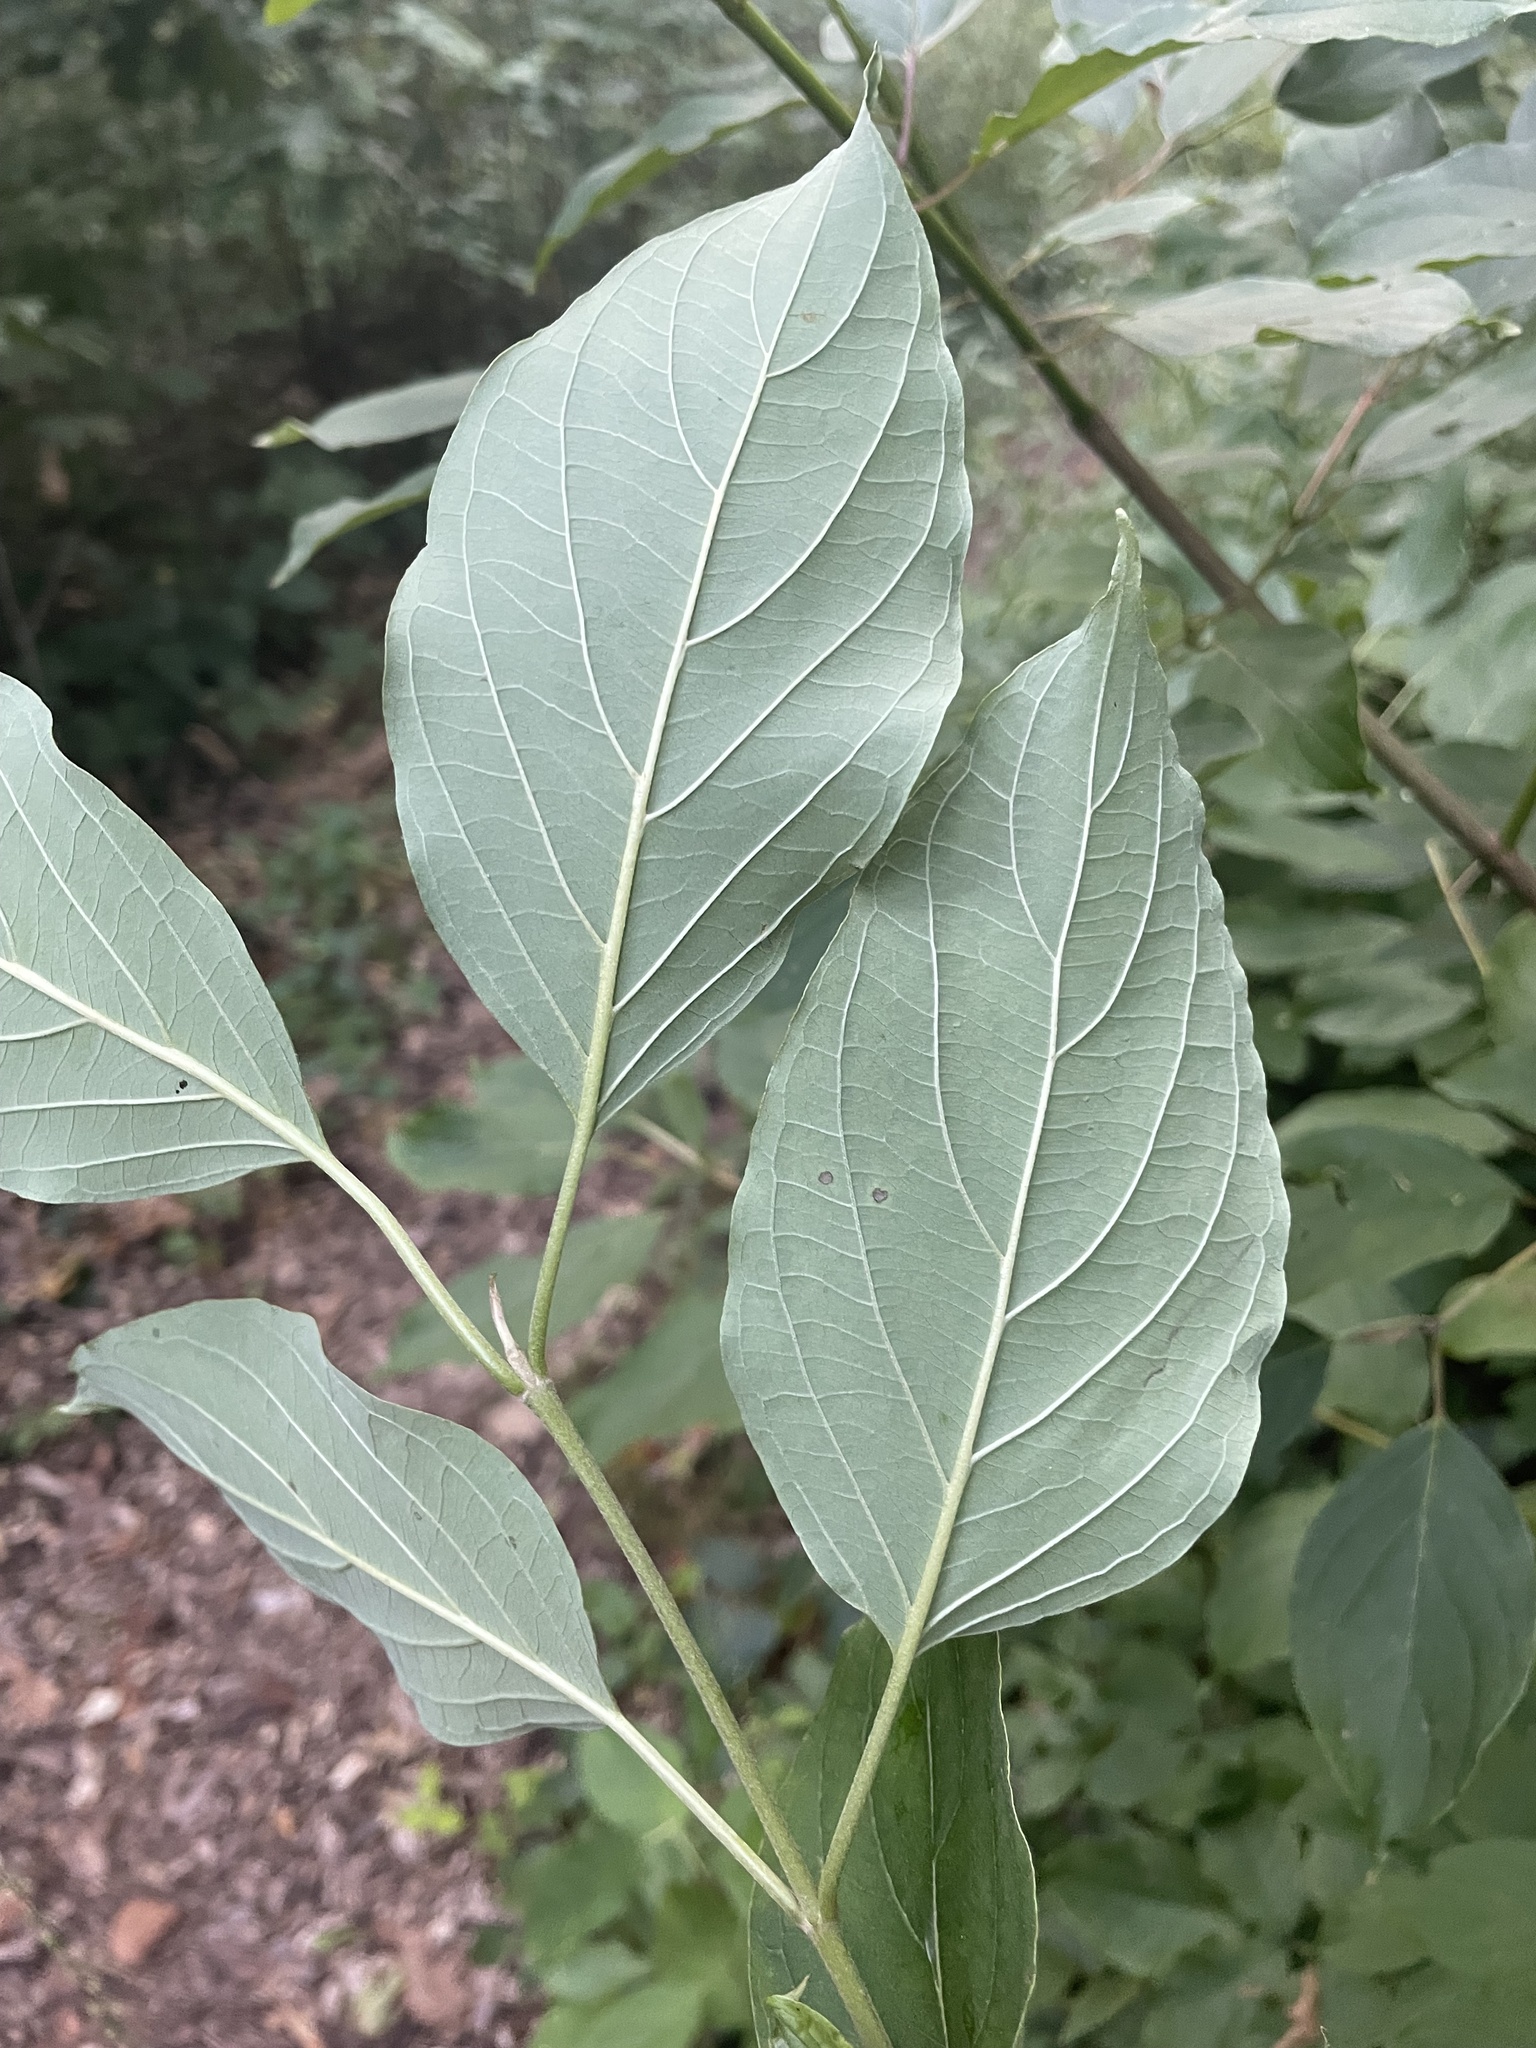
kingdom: Plantae
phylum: Tracheophyta
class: Magnoliopsida
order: Cornales
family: Cornaceae
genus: Cornus
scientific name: Cornus amomum
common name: Silky dogwood
